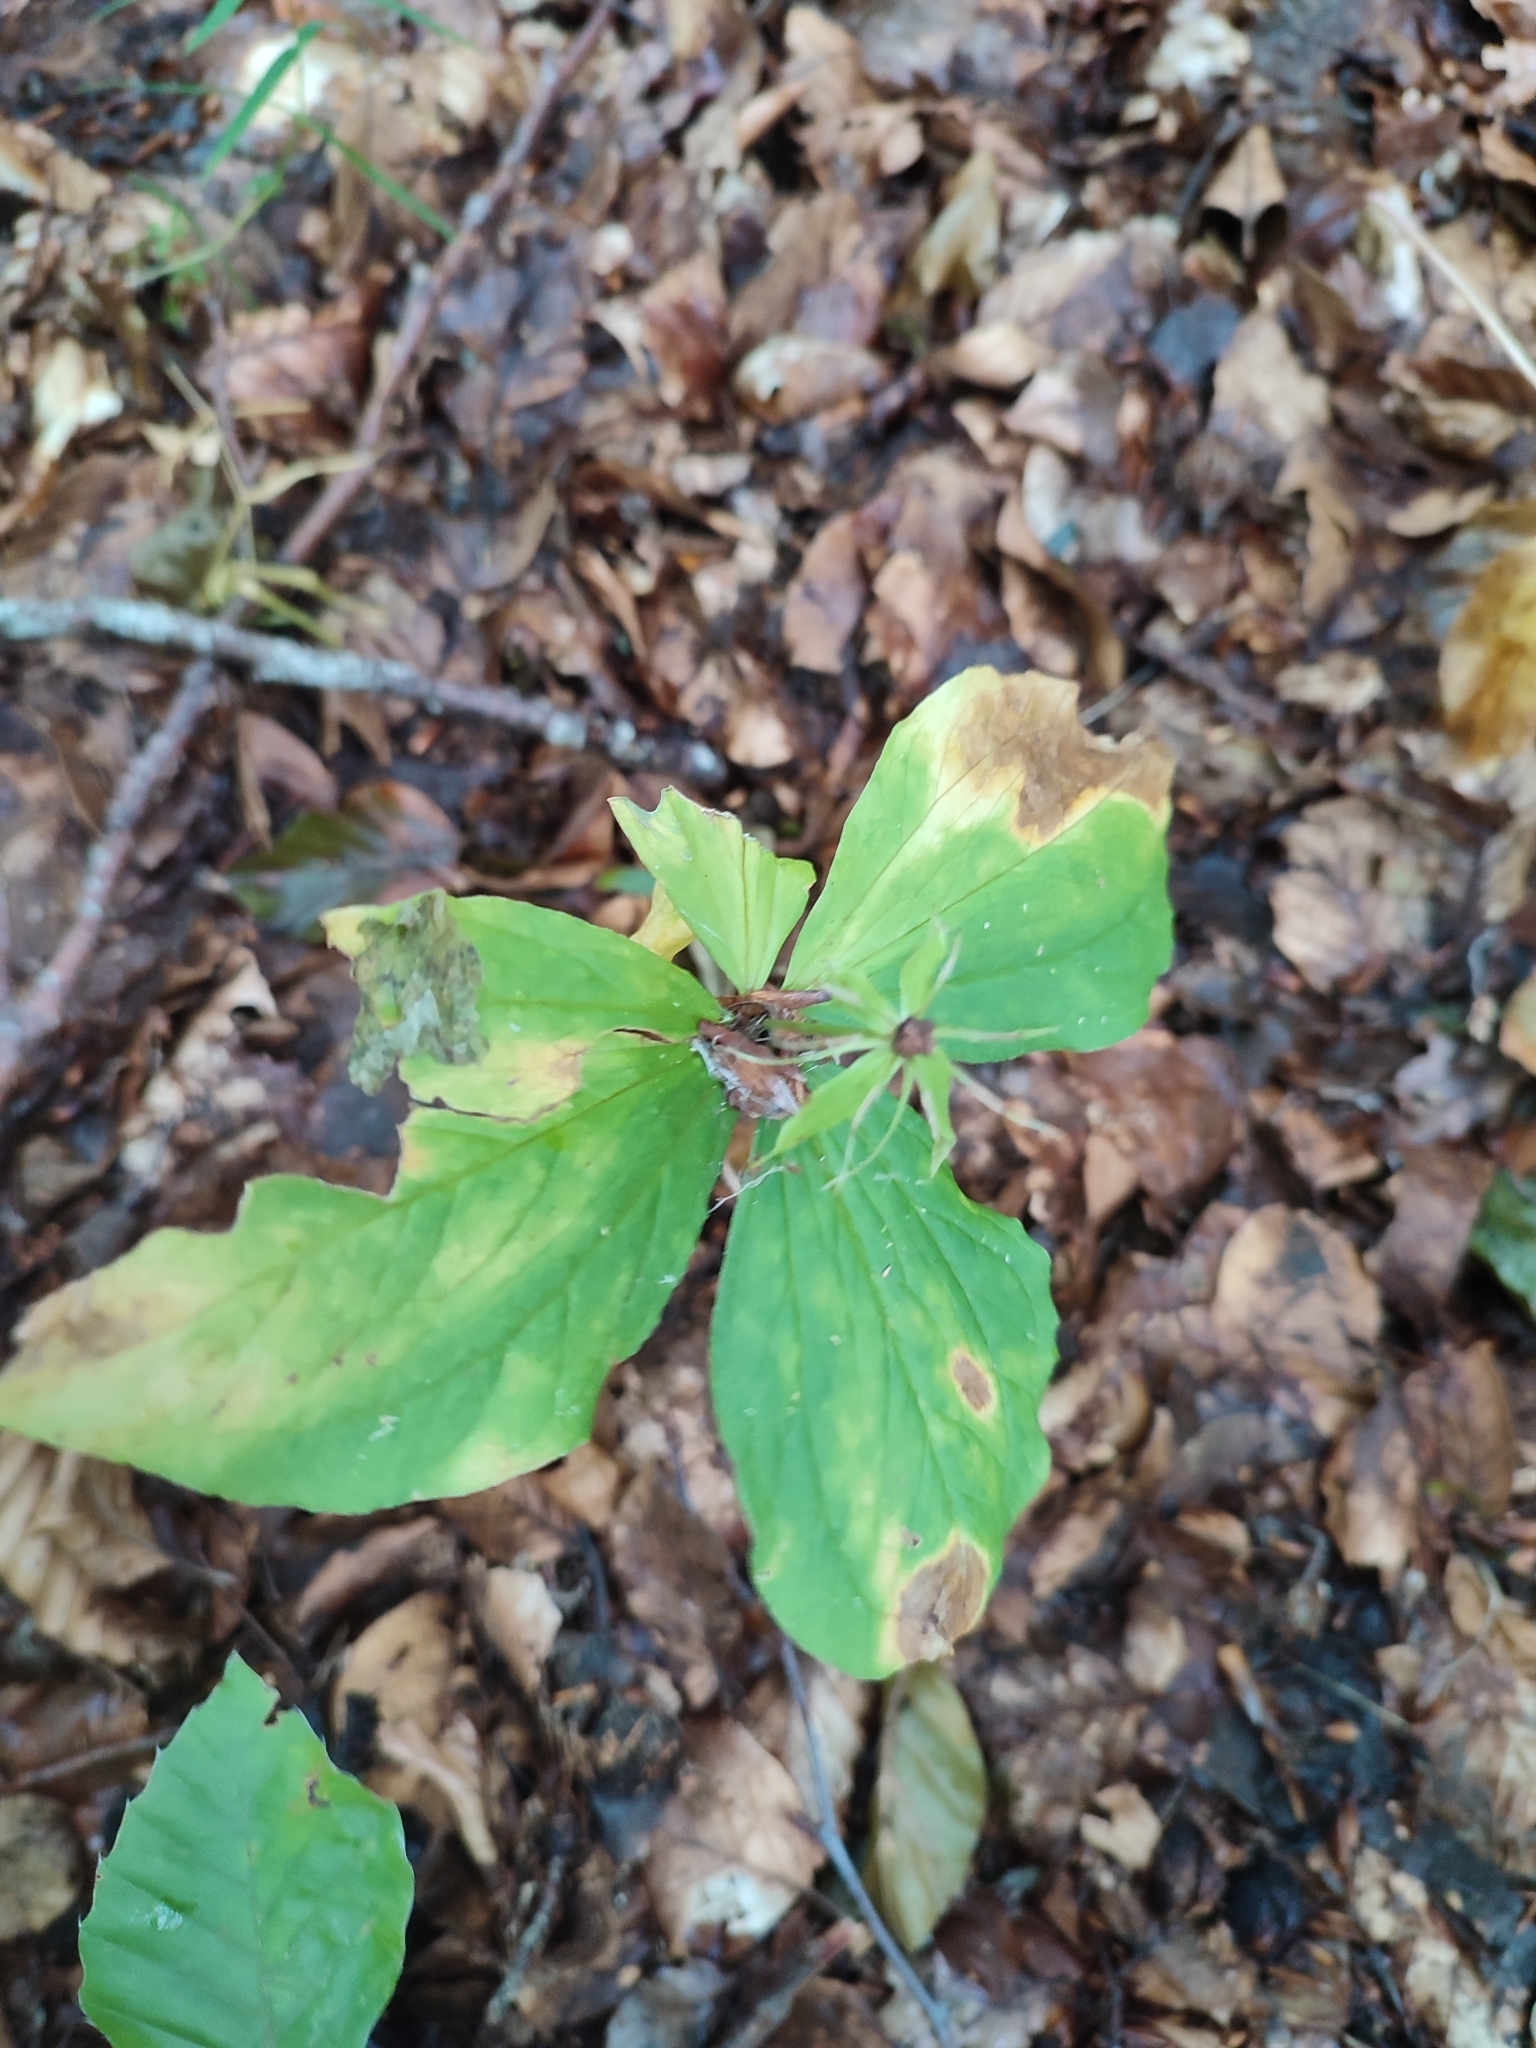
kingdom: Plantae
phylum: Tracheophyta
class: Liliopsida
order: Liliales
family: Melanthiaceae
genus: Paris
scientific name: Paris quadrifolia
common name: Herb-paris
